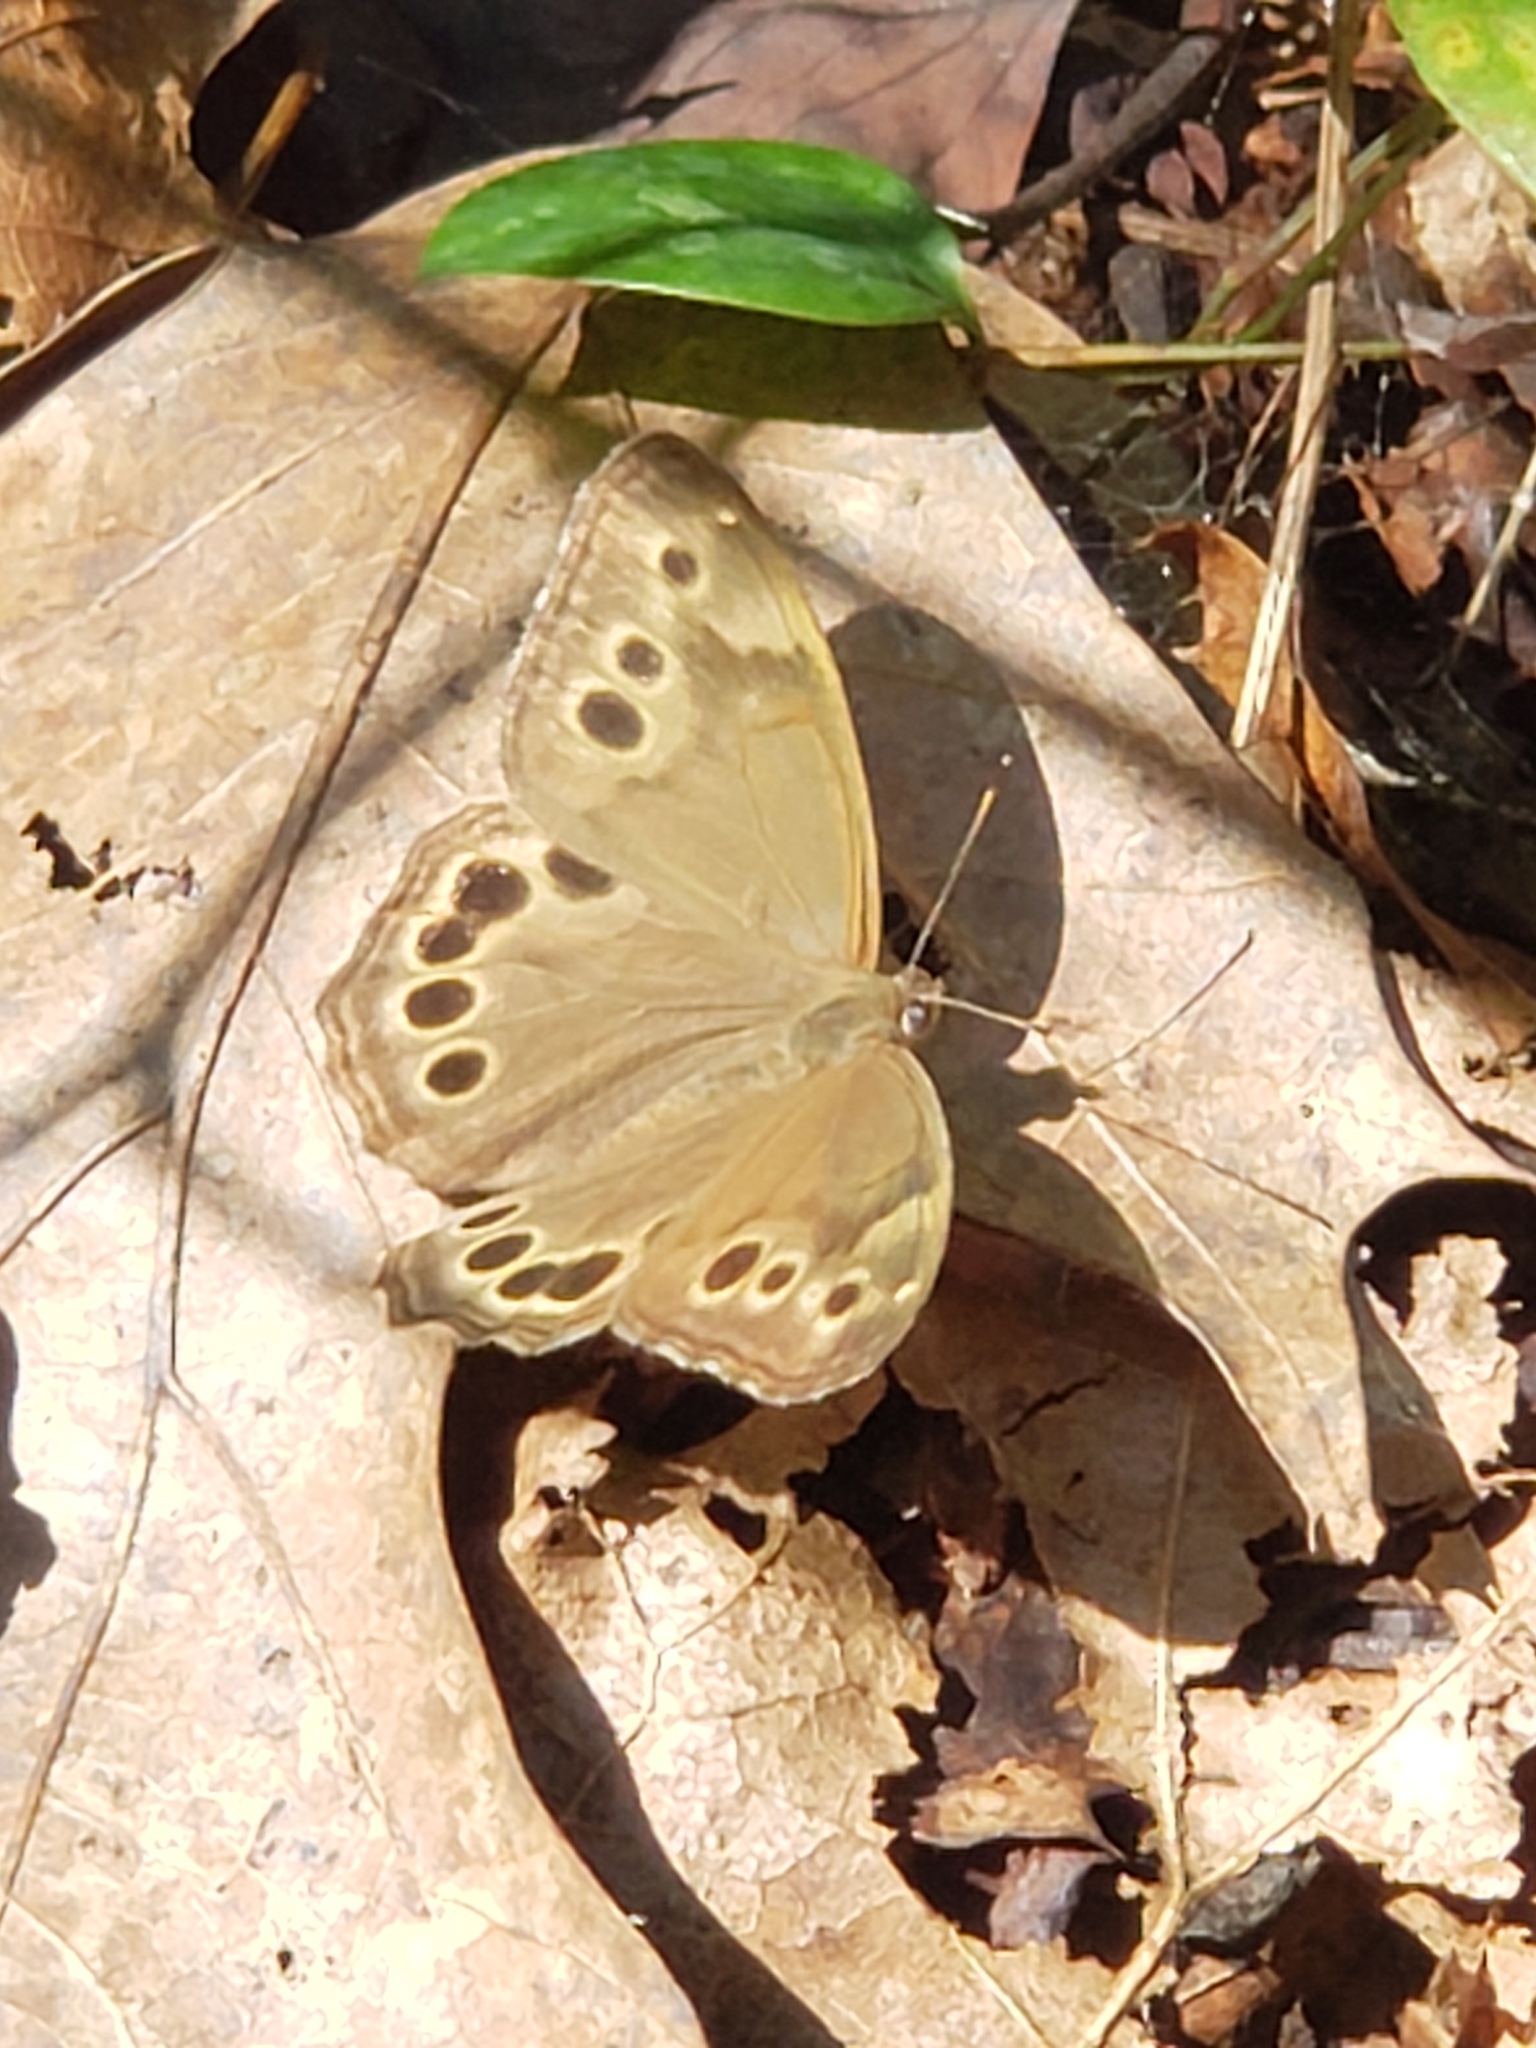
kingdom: Animalia
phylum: Arthropoda
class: Insecta
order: Lepidoptera
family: Nymphalidae
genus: Lethe
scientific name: Lethe anthedon
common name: Northern pearly-eye
